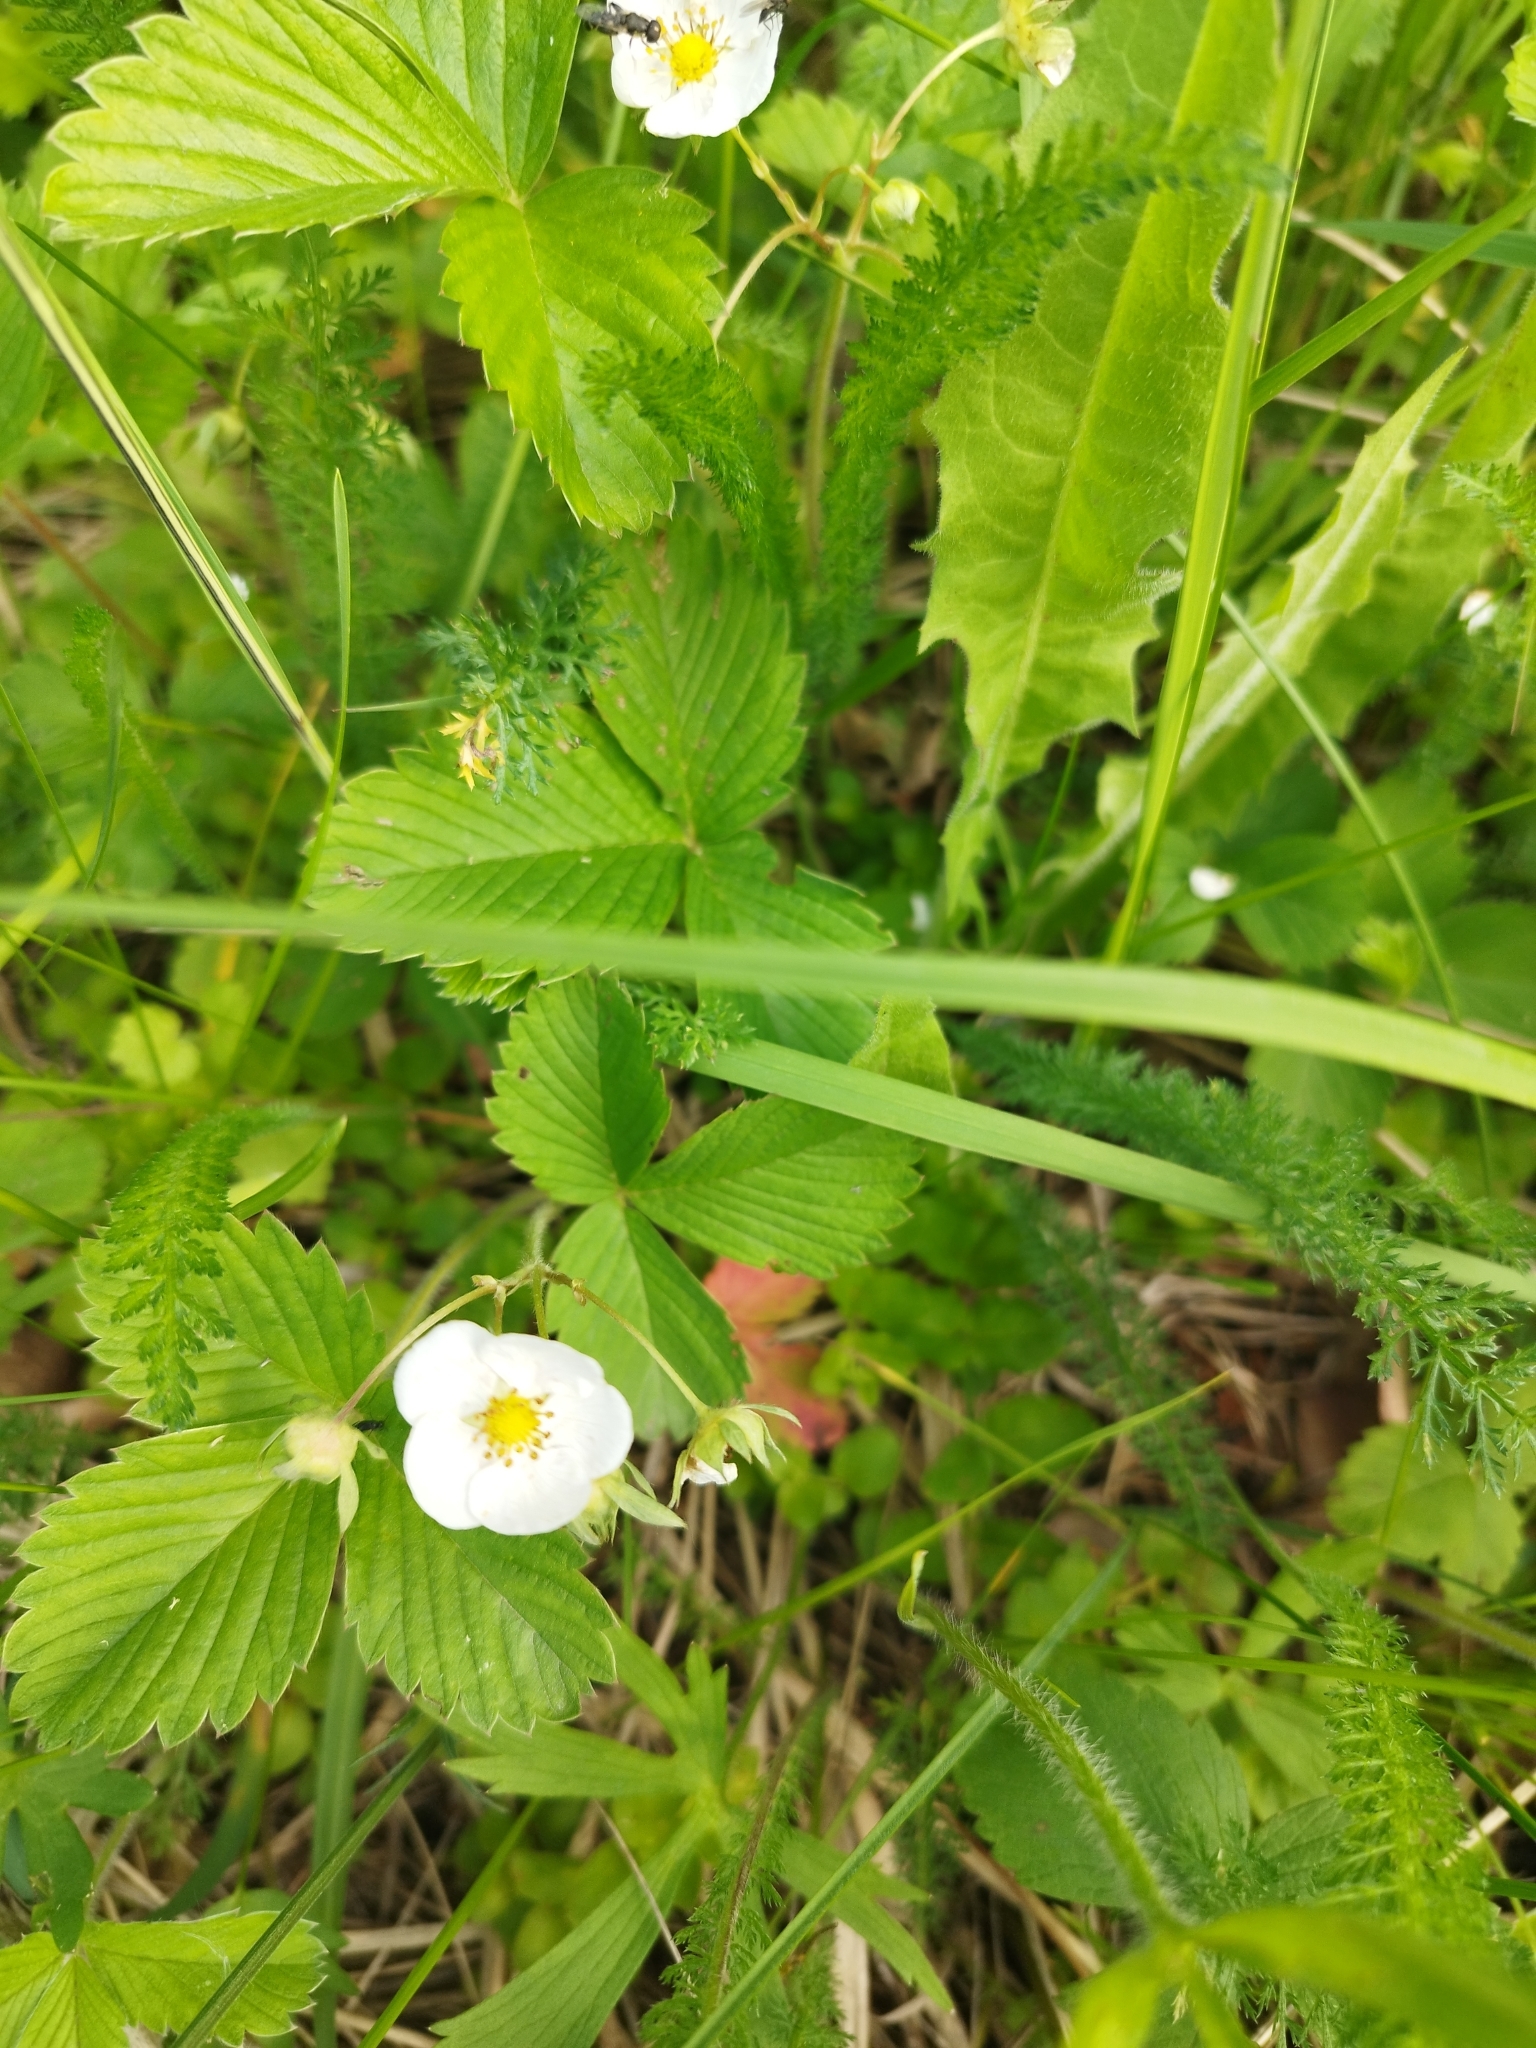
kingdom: Plantae
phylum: Tracheophyta
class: Magnoliopsida
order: Rosales
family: Rosaceae
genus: Fragaria
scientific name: Fragaria viridis
